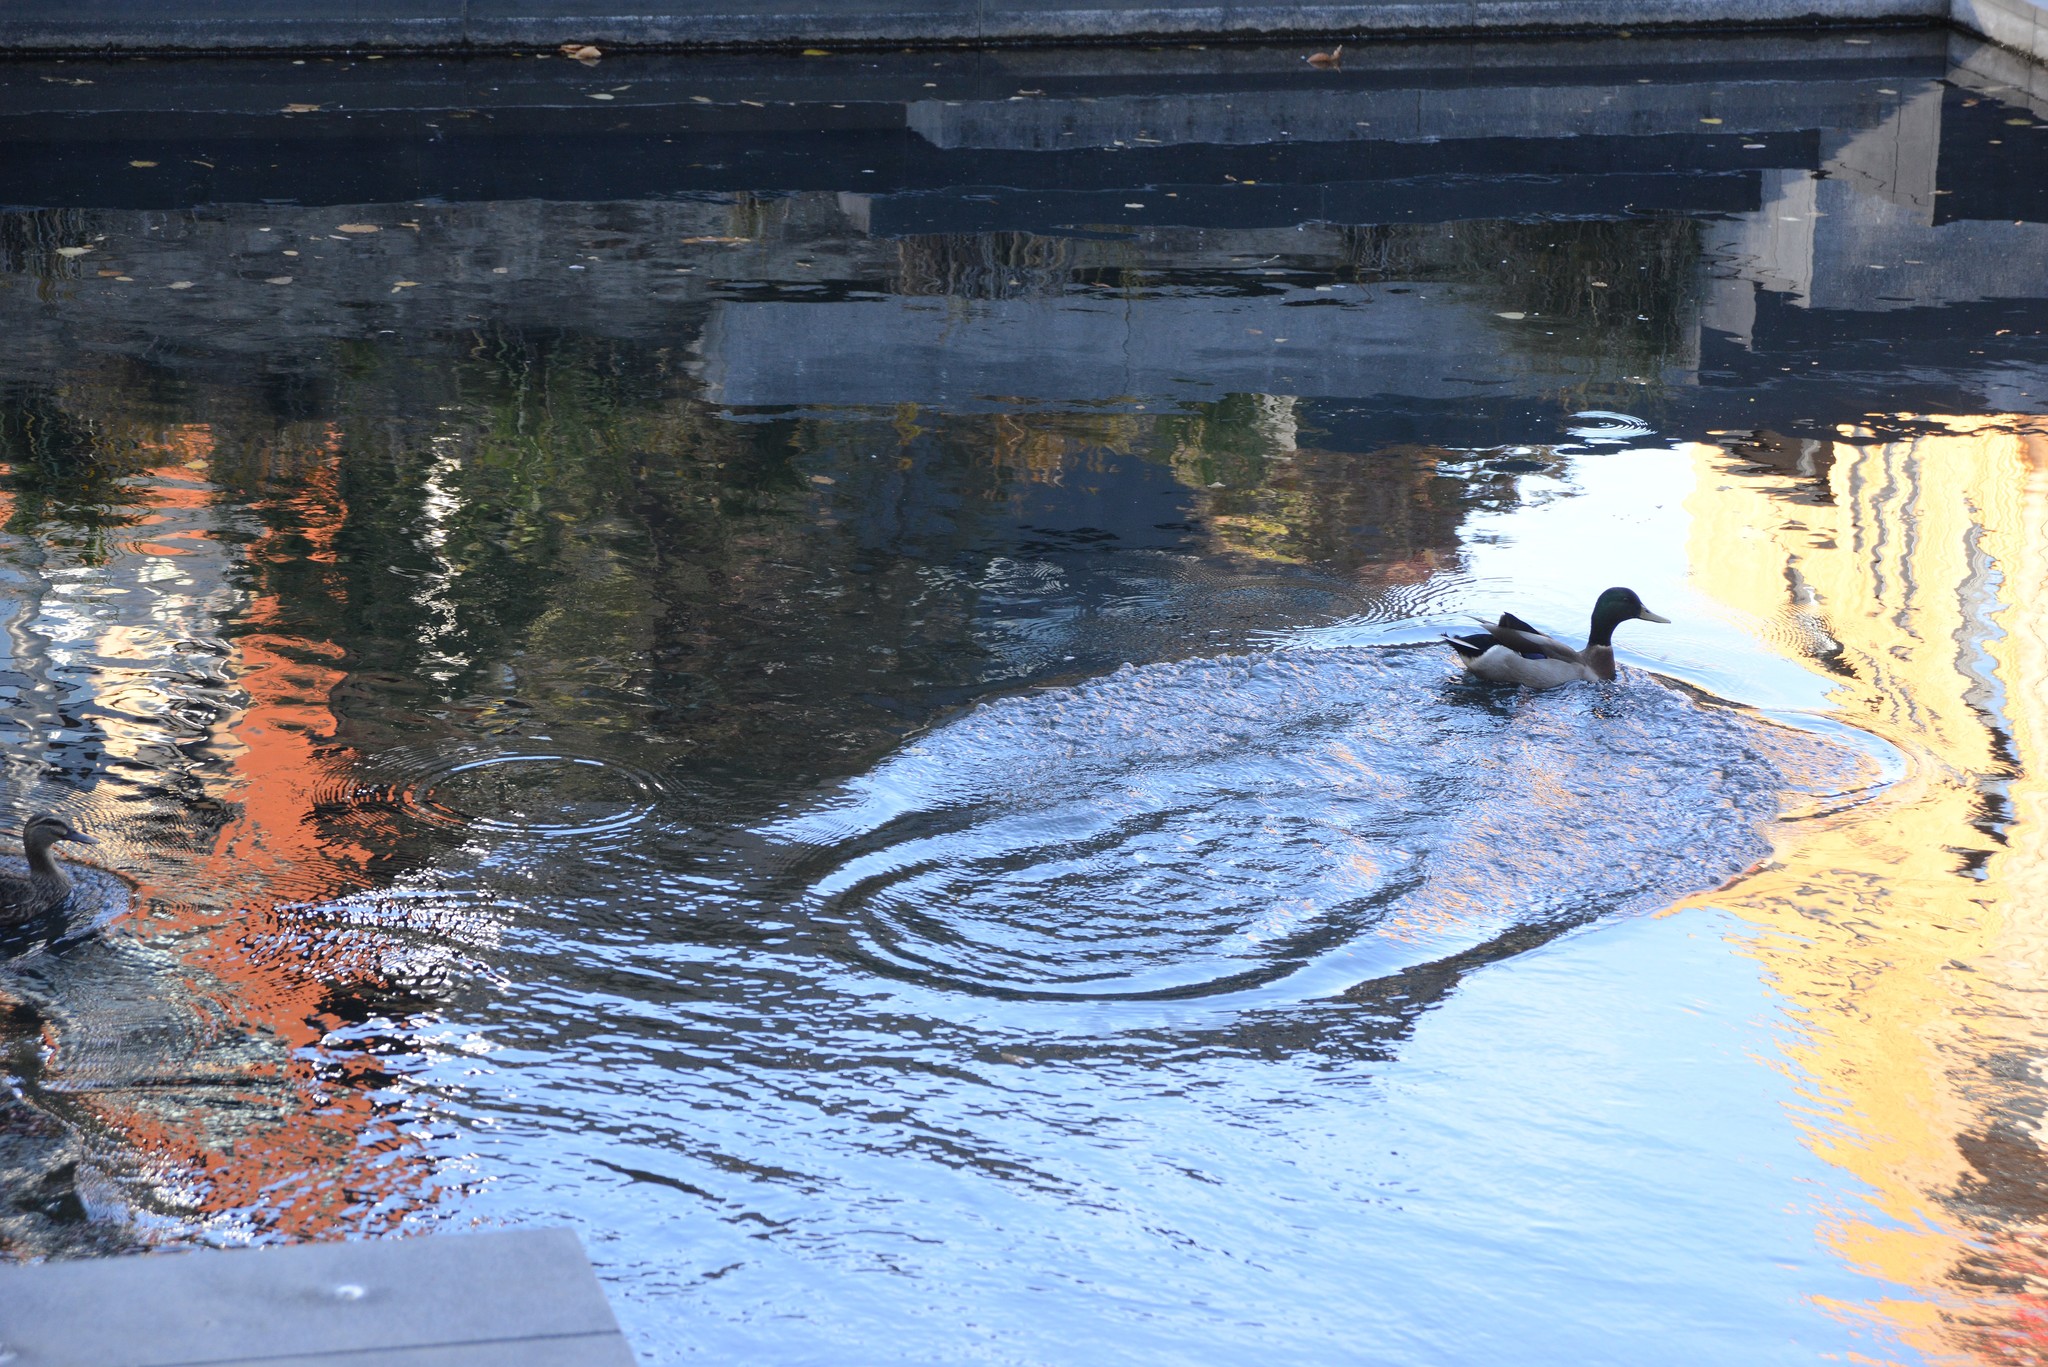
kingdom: Animalia
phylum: Chordata
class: Aves
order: Anseriformes
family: Anatidae
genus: Anas
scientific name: Anas platyrhynchos
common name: Mallard
